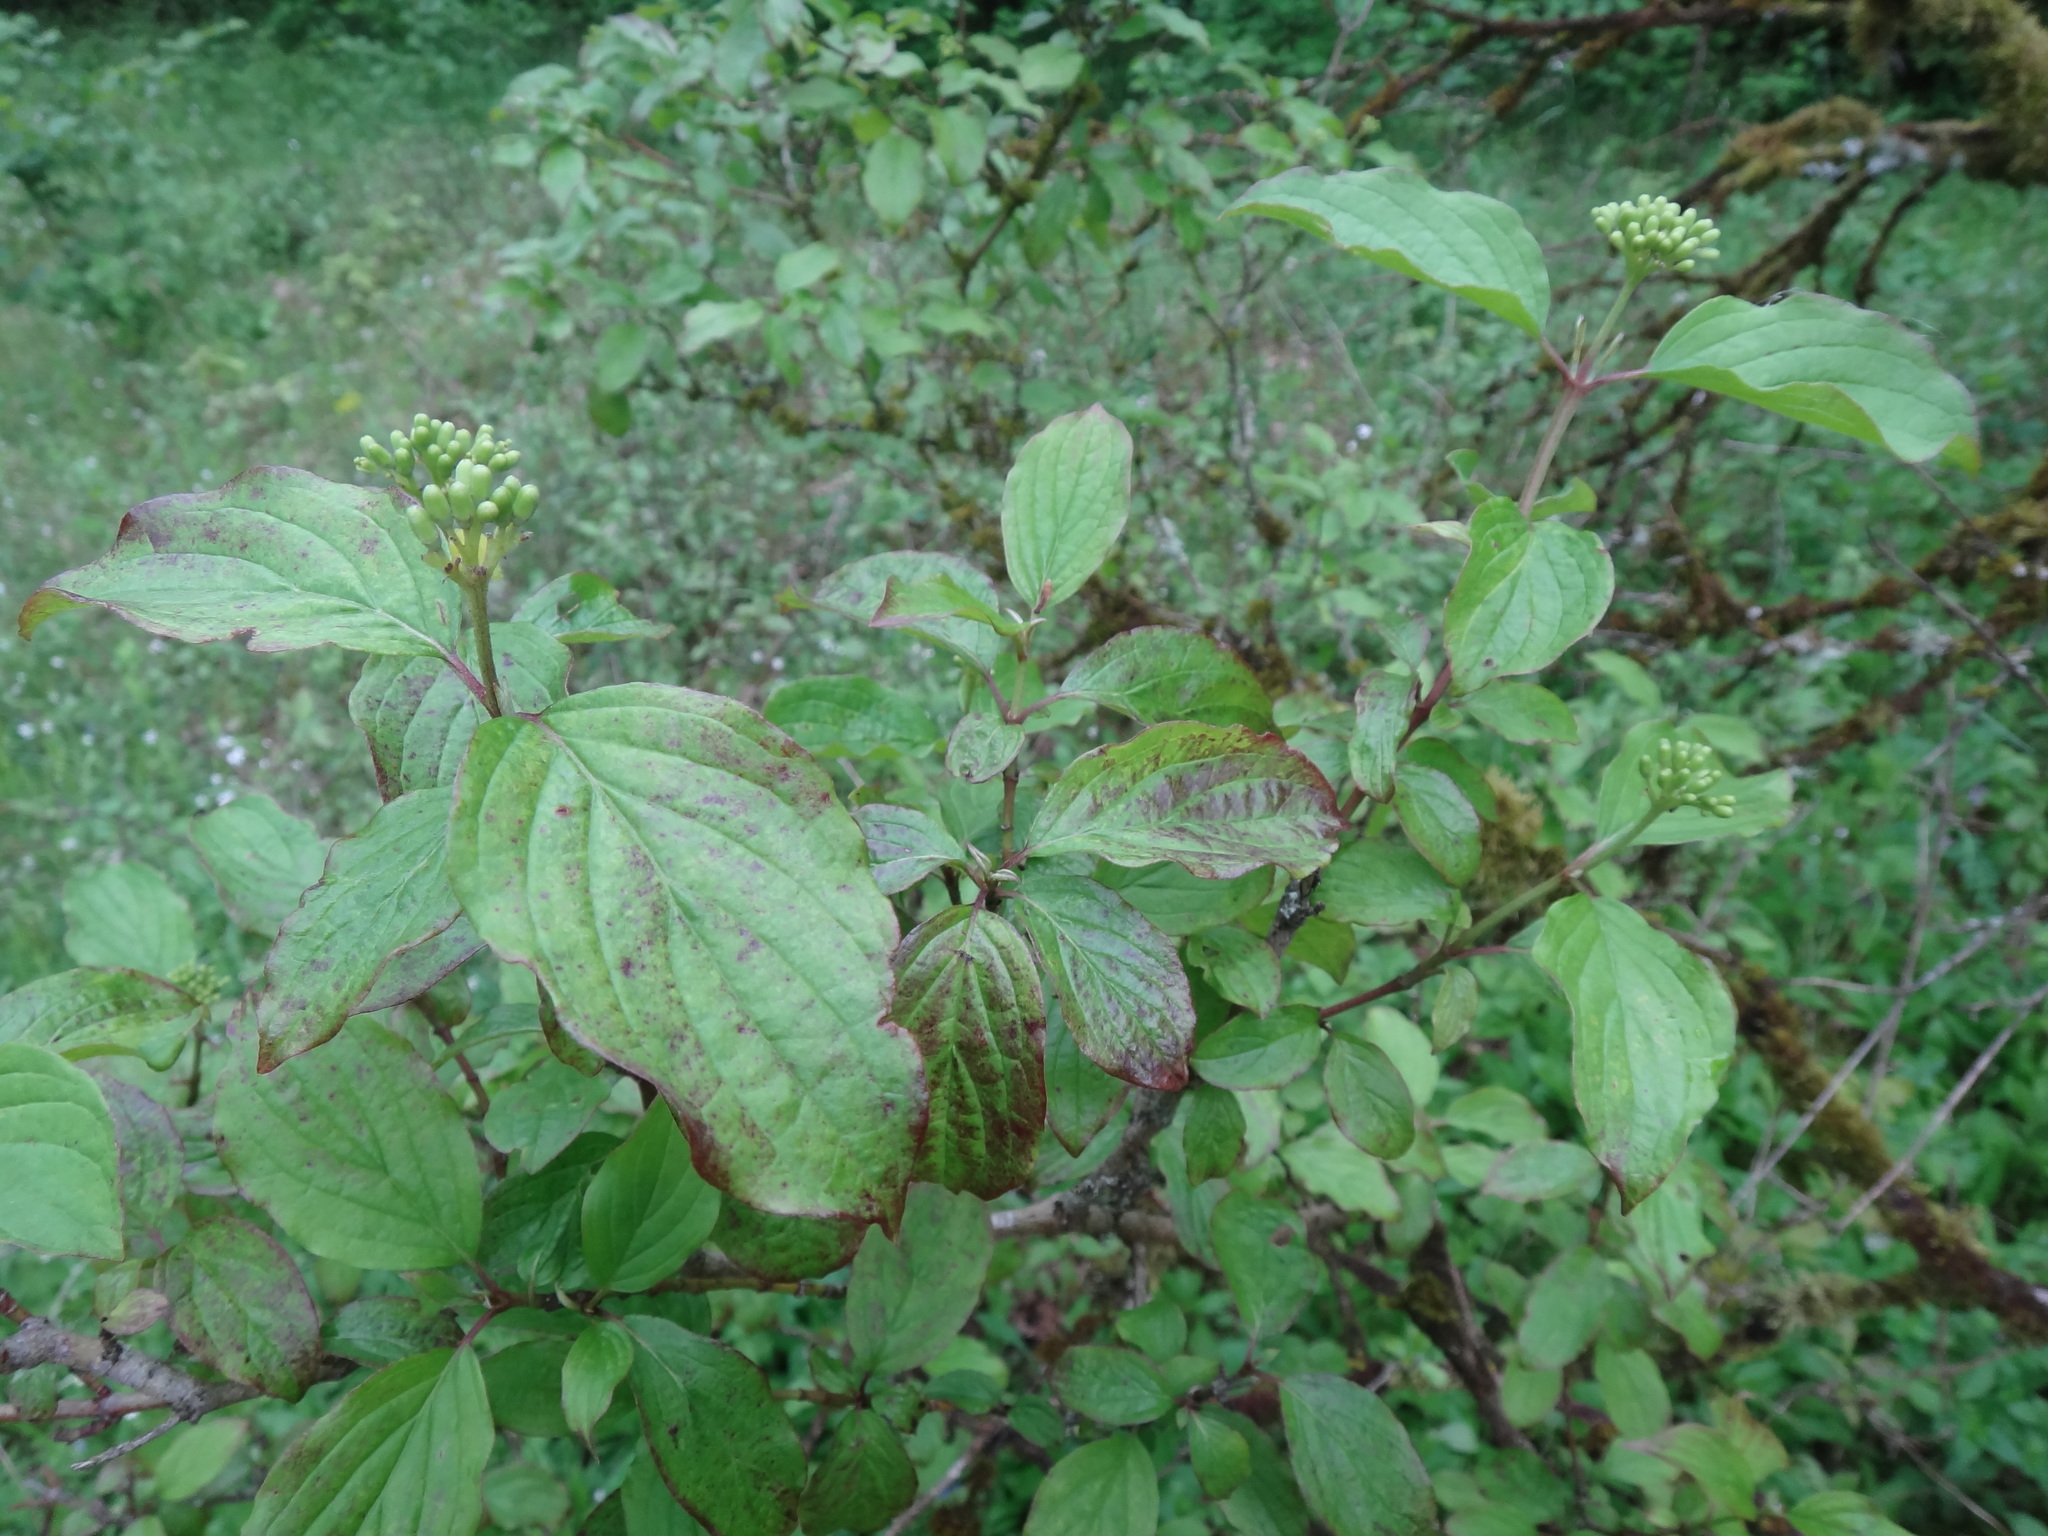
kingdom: Plantae
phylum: Tracheophyta
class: Magnoliopsida
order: Cornales
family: Cornaceae
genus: Cornus
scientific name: Cornus sanguinea
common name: Dogwood
